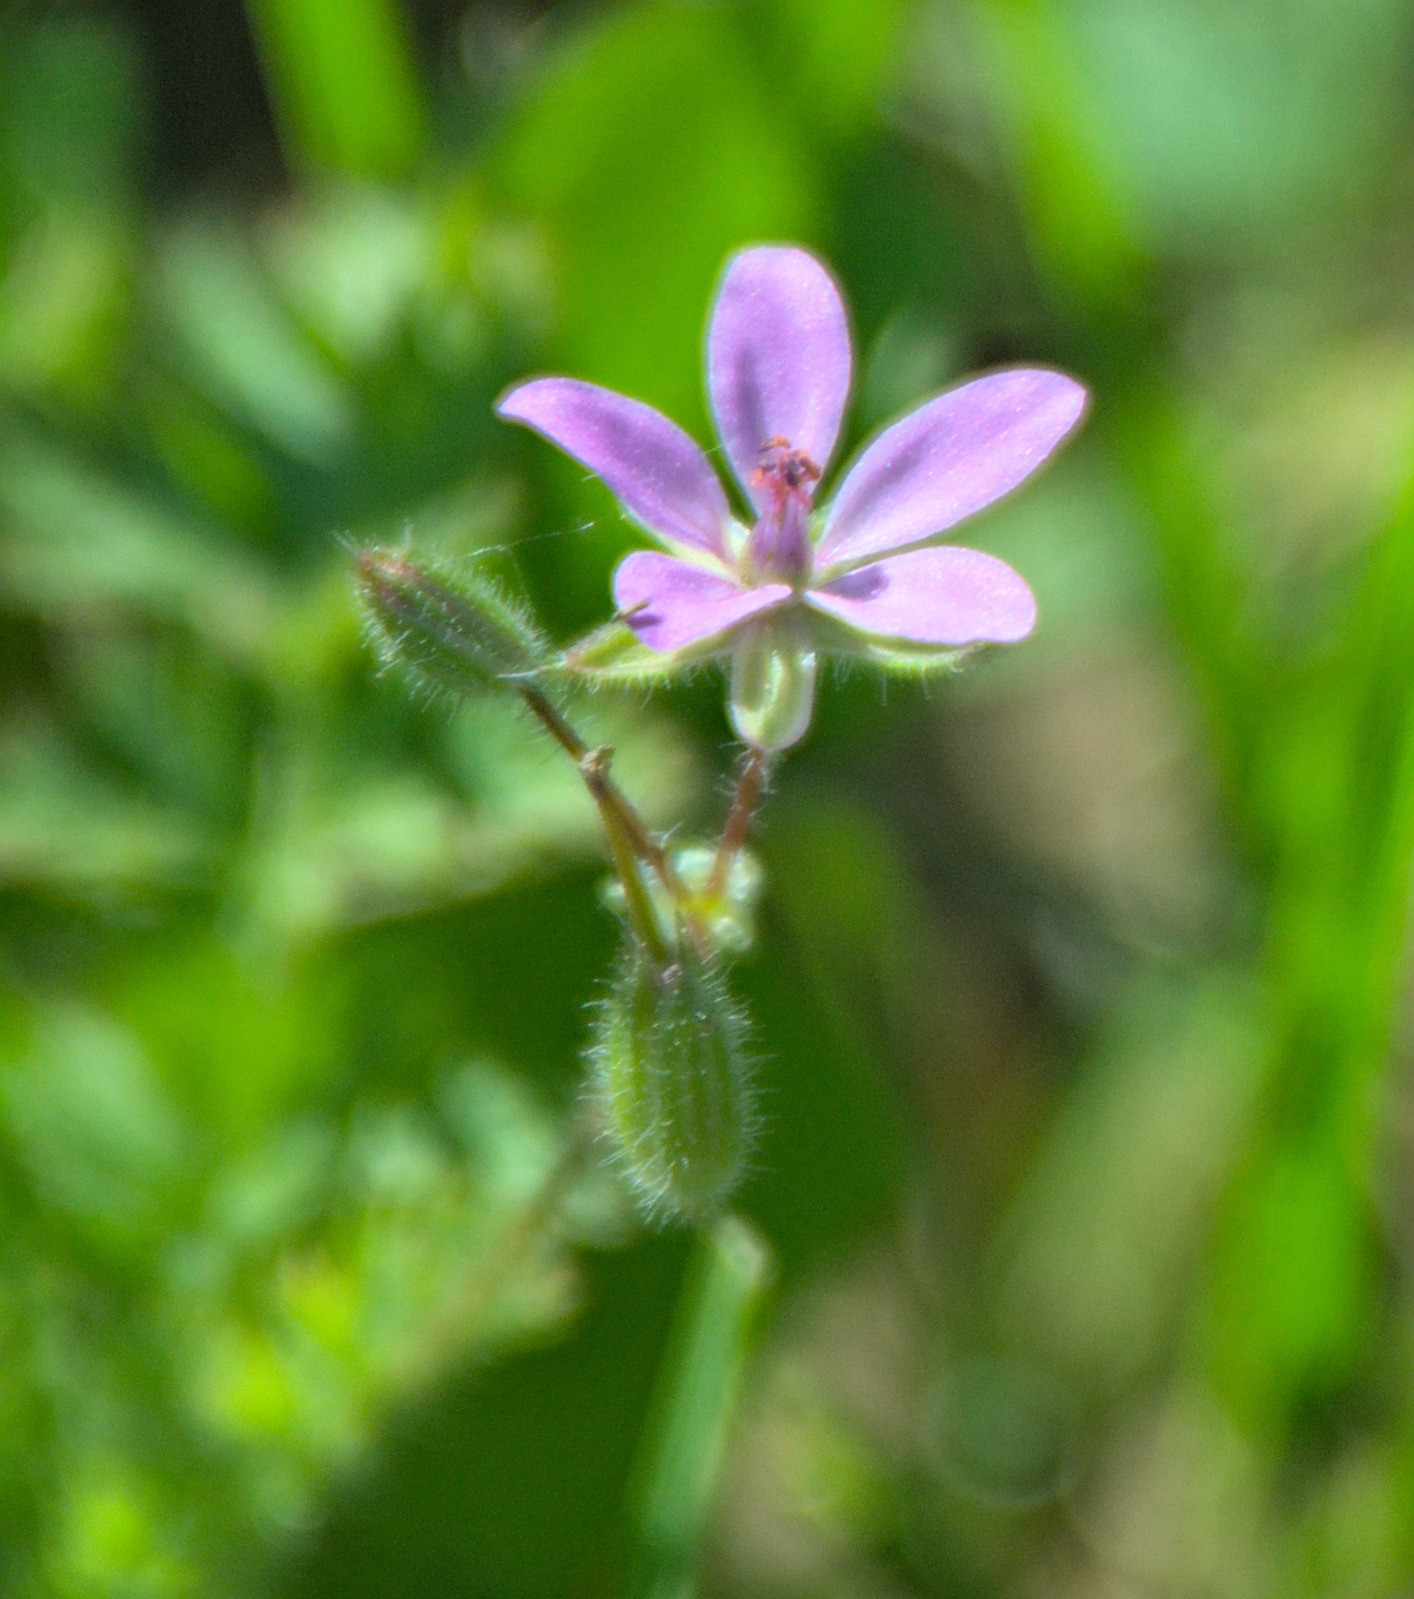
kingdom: Plantae
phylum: Tracheophyta
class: Magnoliopsida
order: Geraniales
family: Geraniaceae
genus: Erodium
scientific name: Erodium cicutarium
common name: Common stork's-bill
